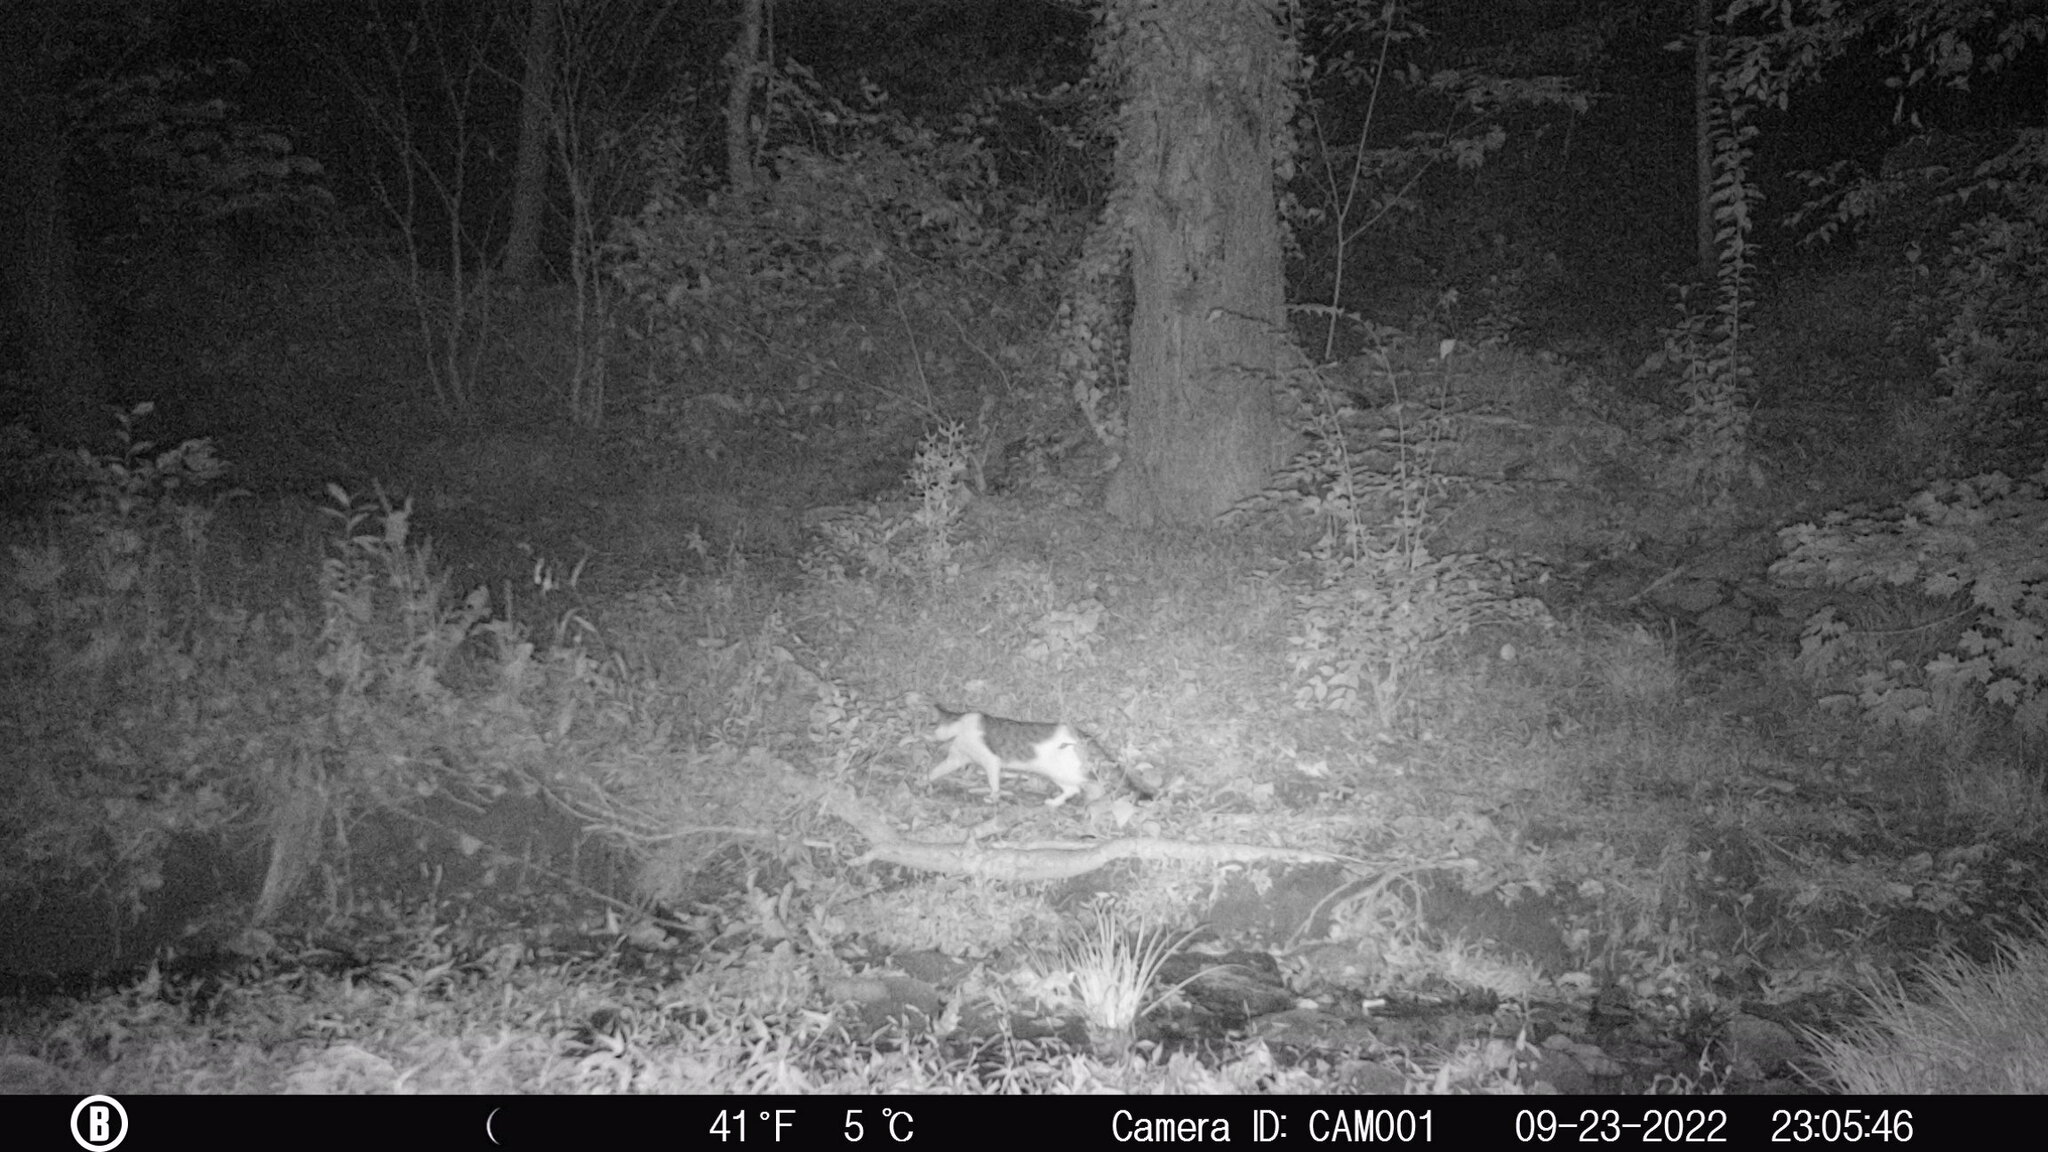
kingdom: Animalia
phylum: Chordata
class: Mammalia
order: Carnivora
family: Felidae
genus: Felis
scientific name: Felis catus
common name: Domestic cat
